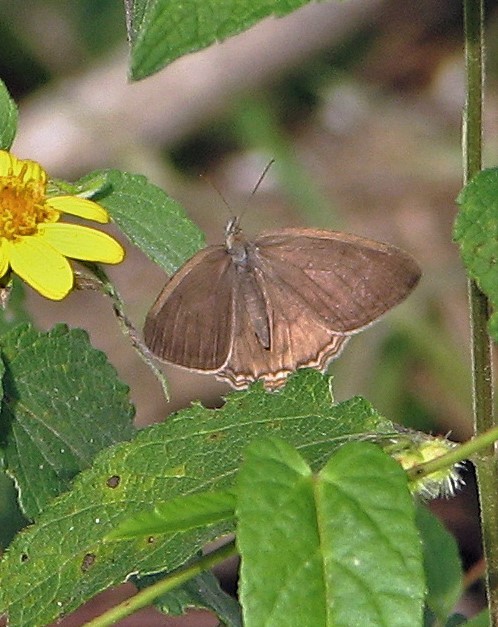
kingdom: Animalia
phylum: Arthropoda
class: Insecta
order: Lepidoptera
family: Nymphalidae
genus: Splendeuptychia
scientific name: Splendeuptychia libitina
